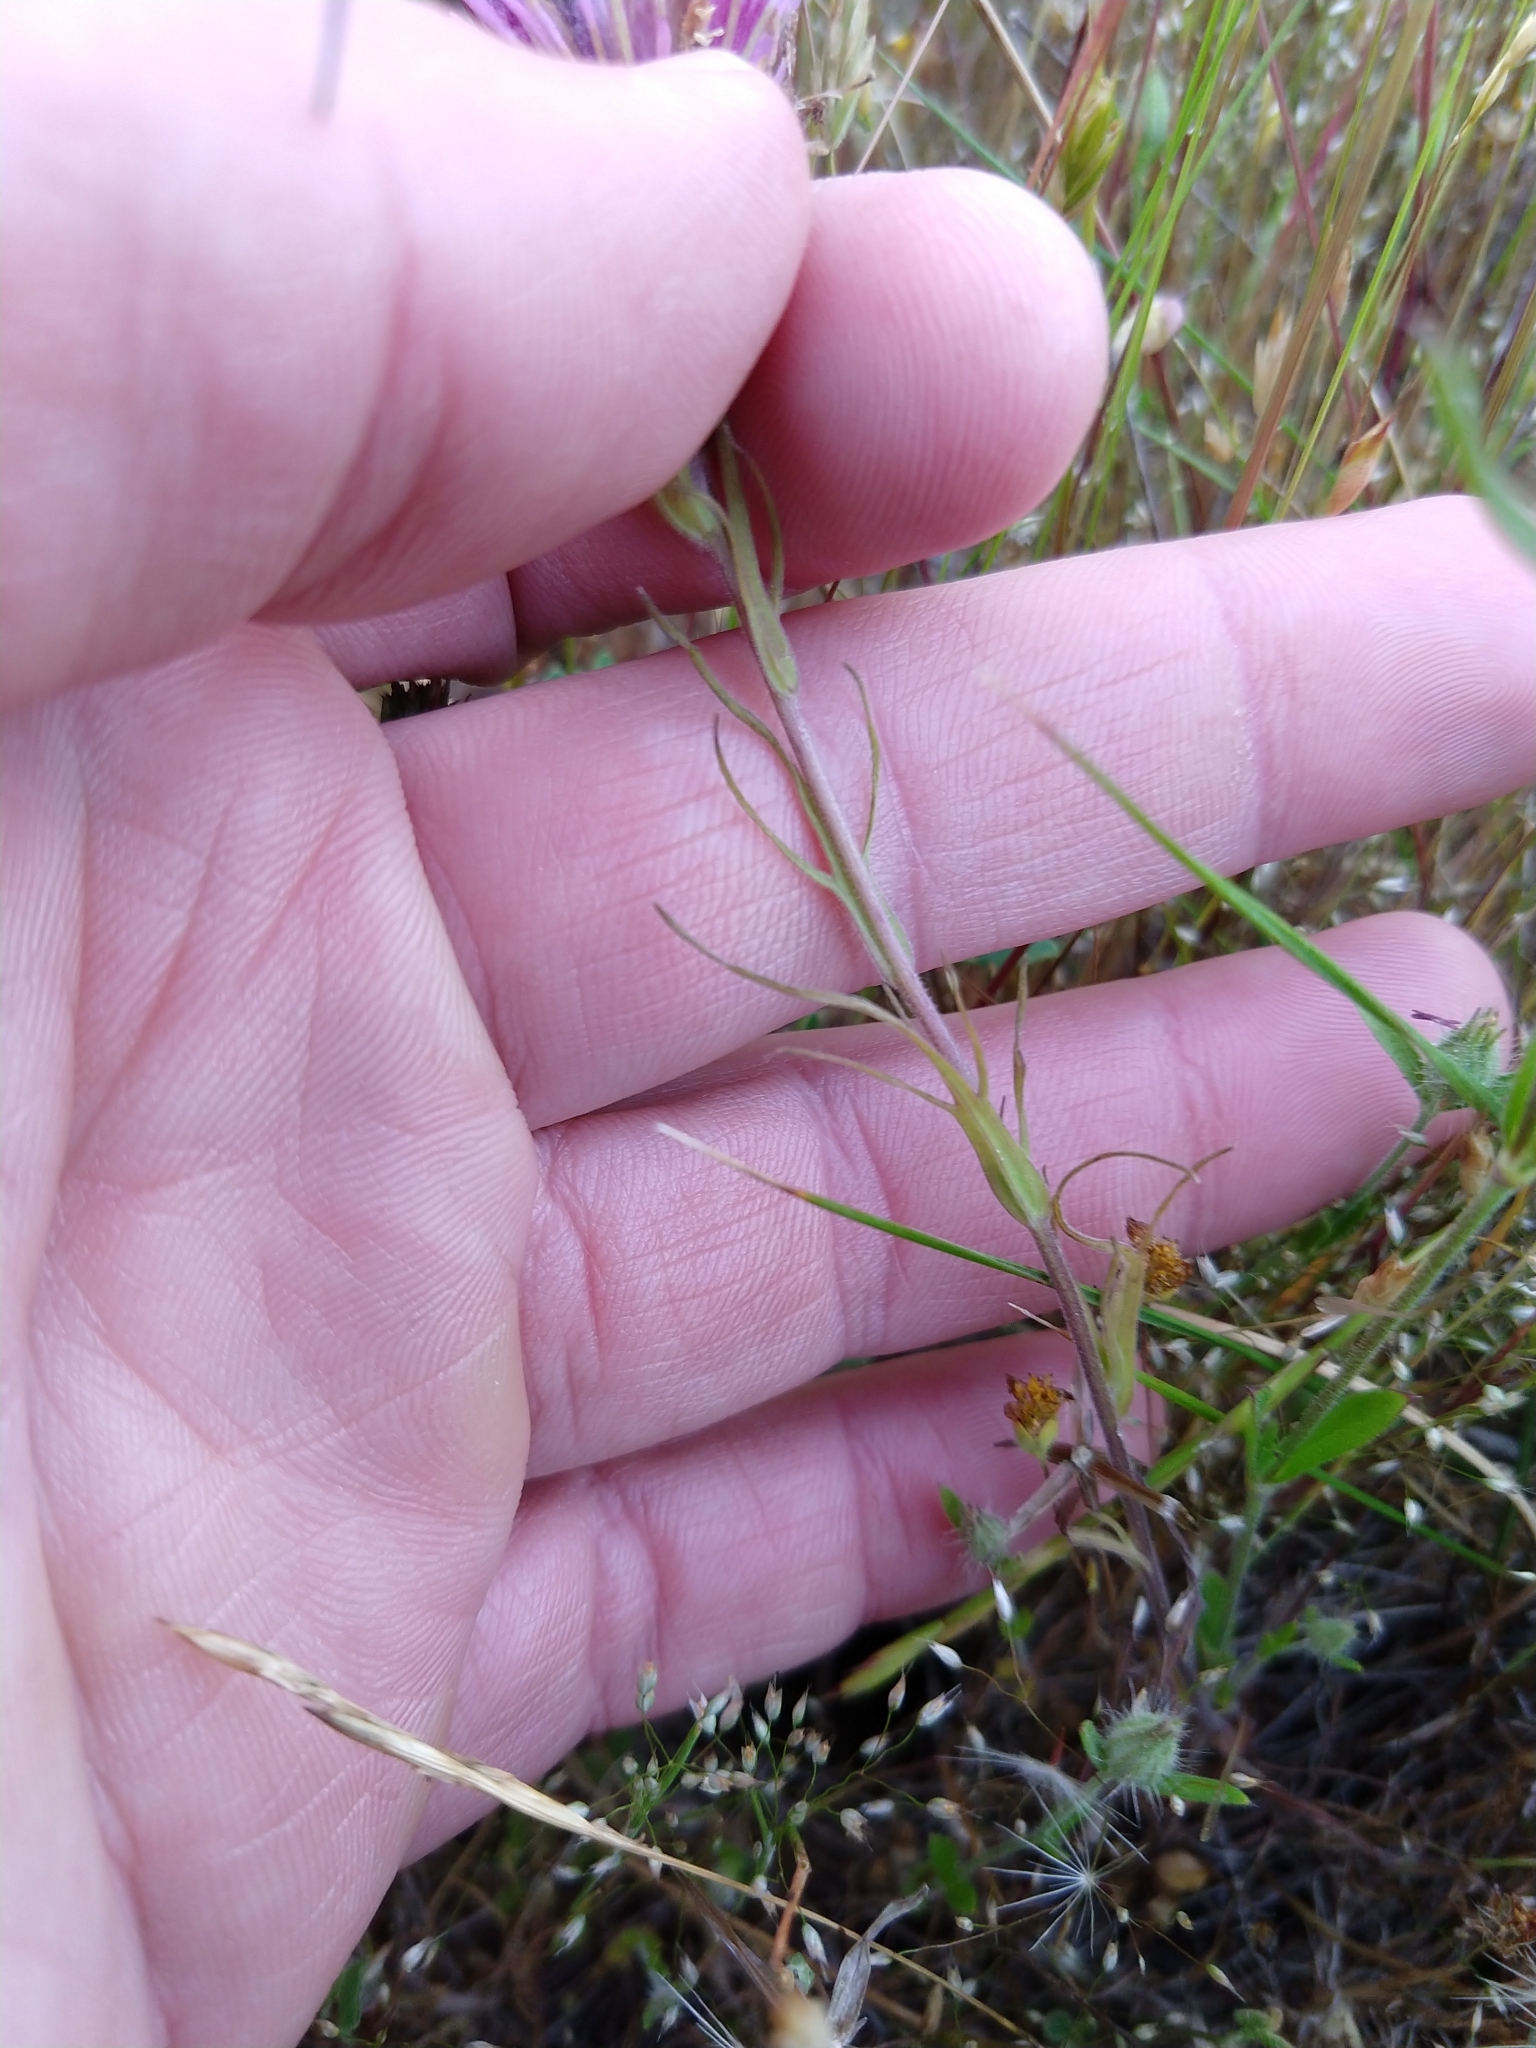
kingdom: Plantae
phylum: Tracheophyta
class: Magnoliopsida
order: Lamiales
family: Orobanchaceae
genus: Castilleja
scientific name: Castilleja densiflora
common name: Dense-flower indian paintbrush
